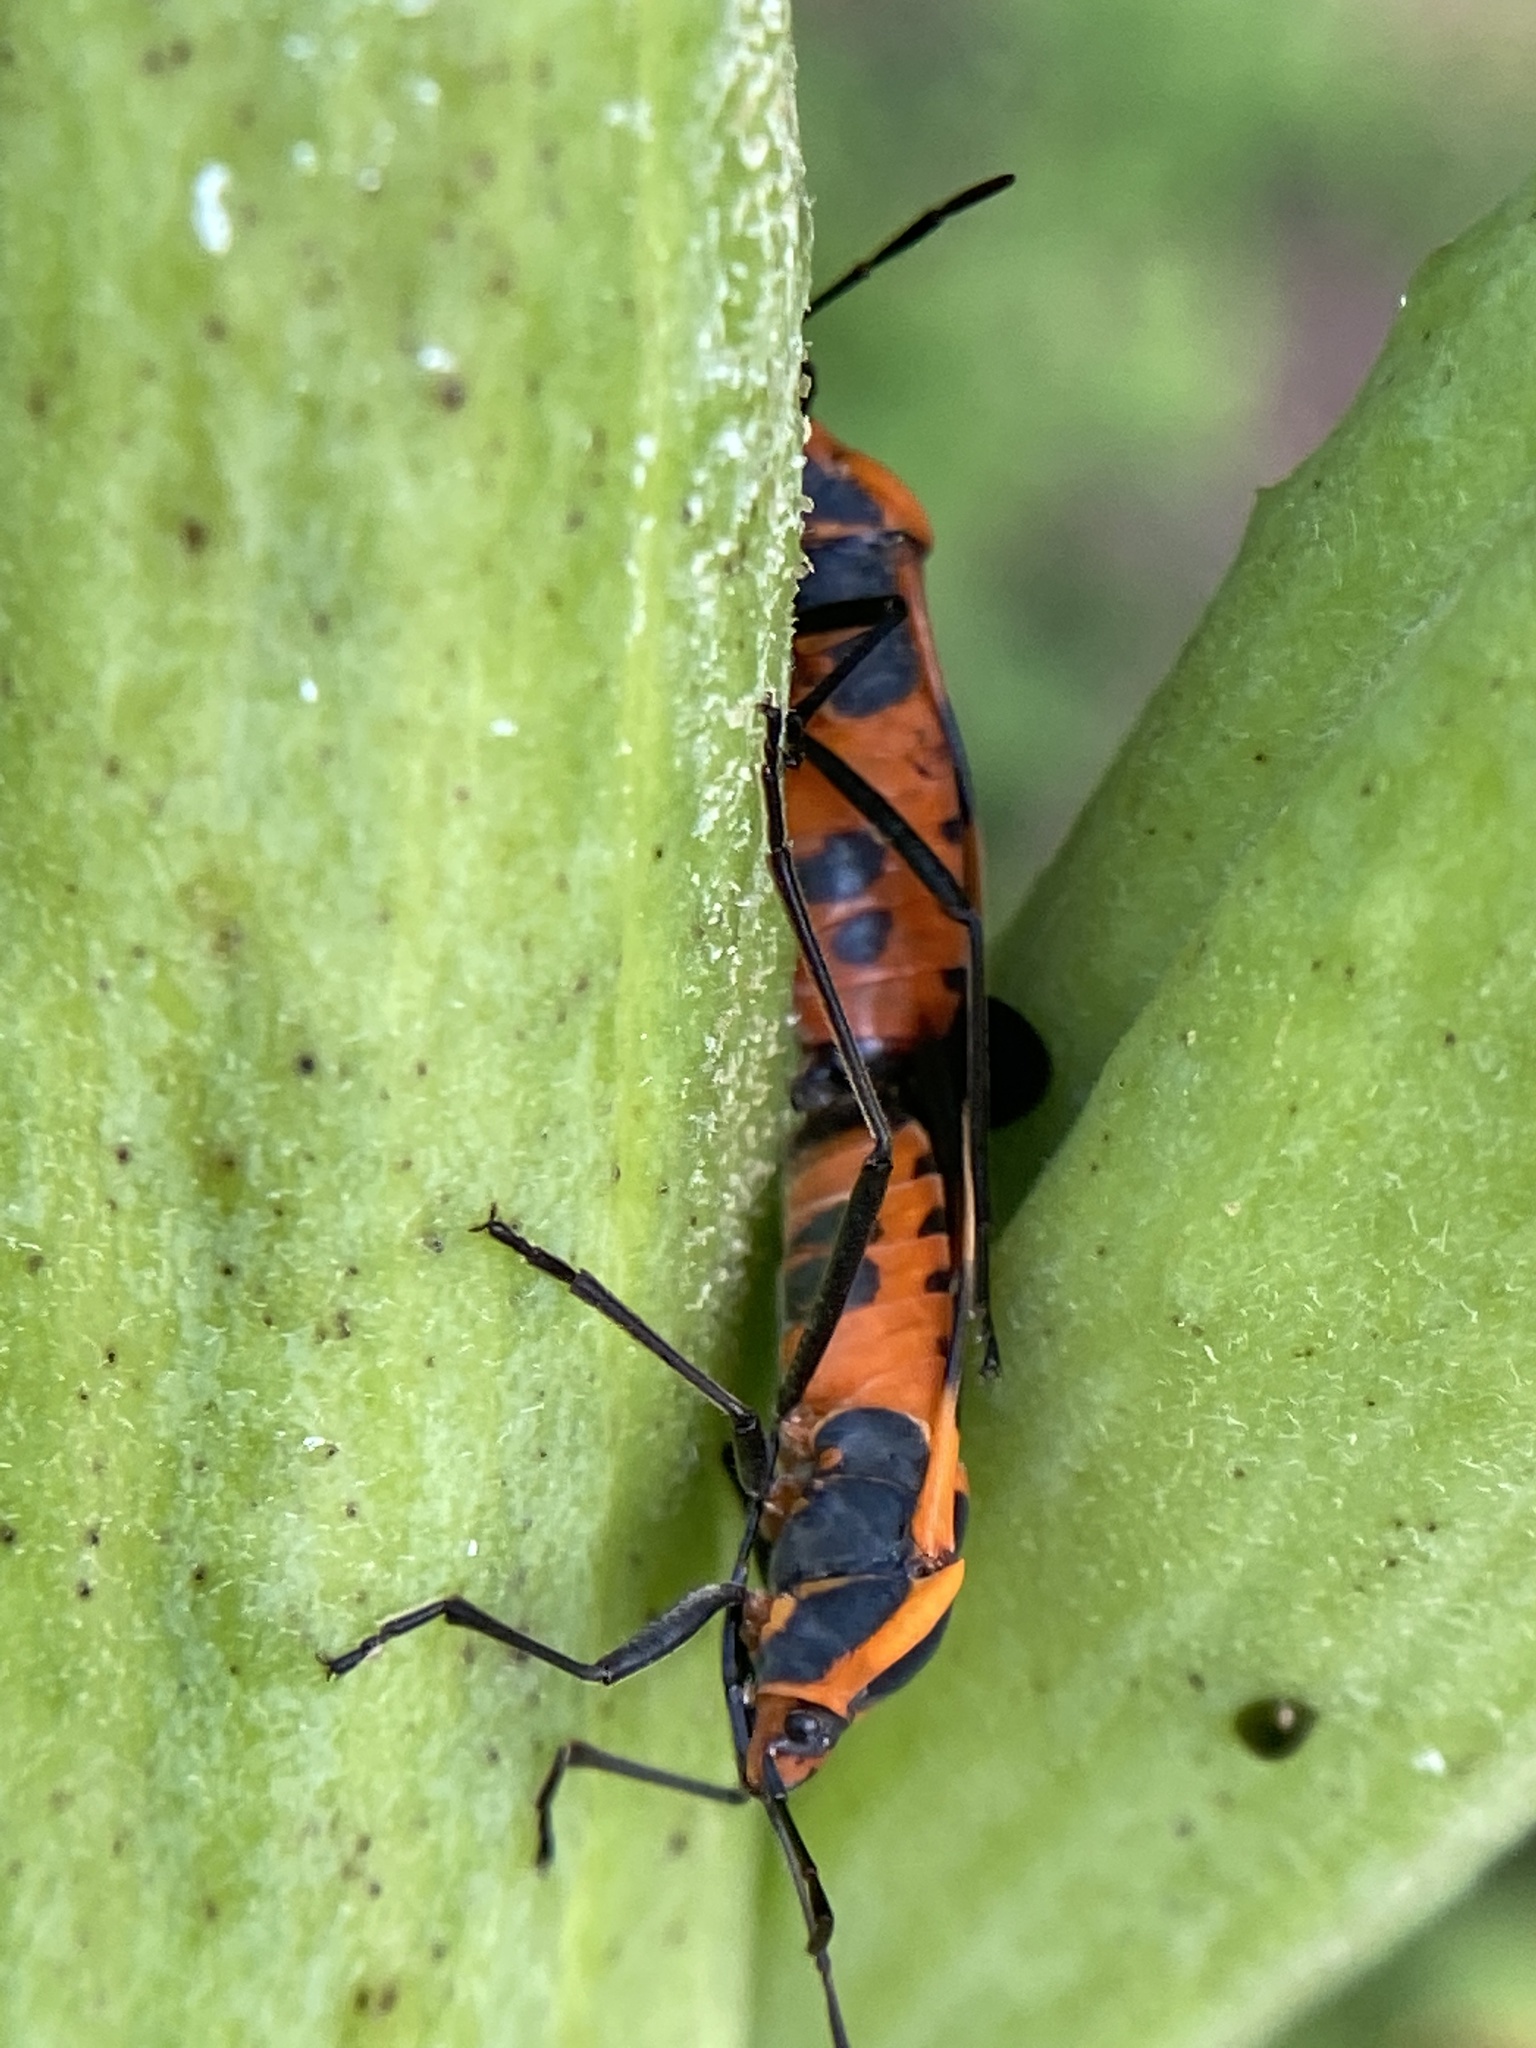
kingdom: Animalia
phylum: Arthropoda
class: Insecta
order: Hemiptera
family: Lygaeidae
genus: Oncopeltus
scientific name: Oncopeltus fasciatus
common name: Large milkweed bug
